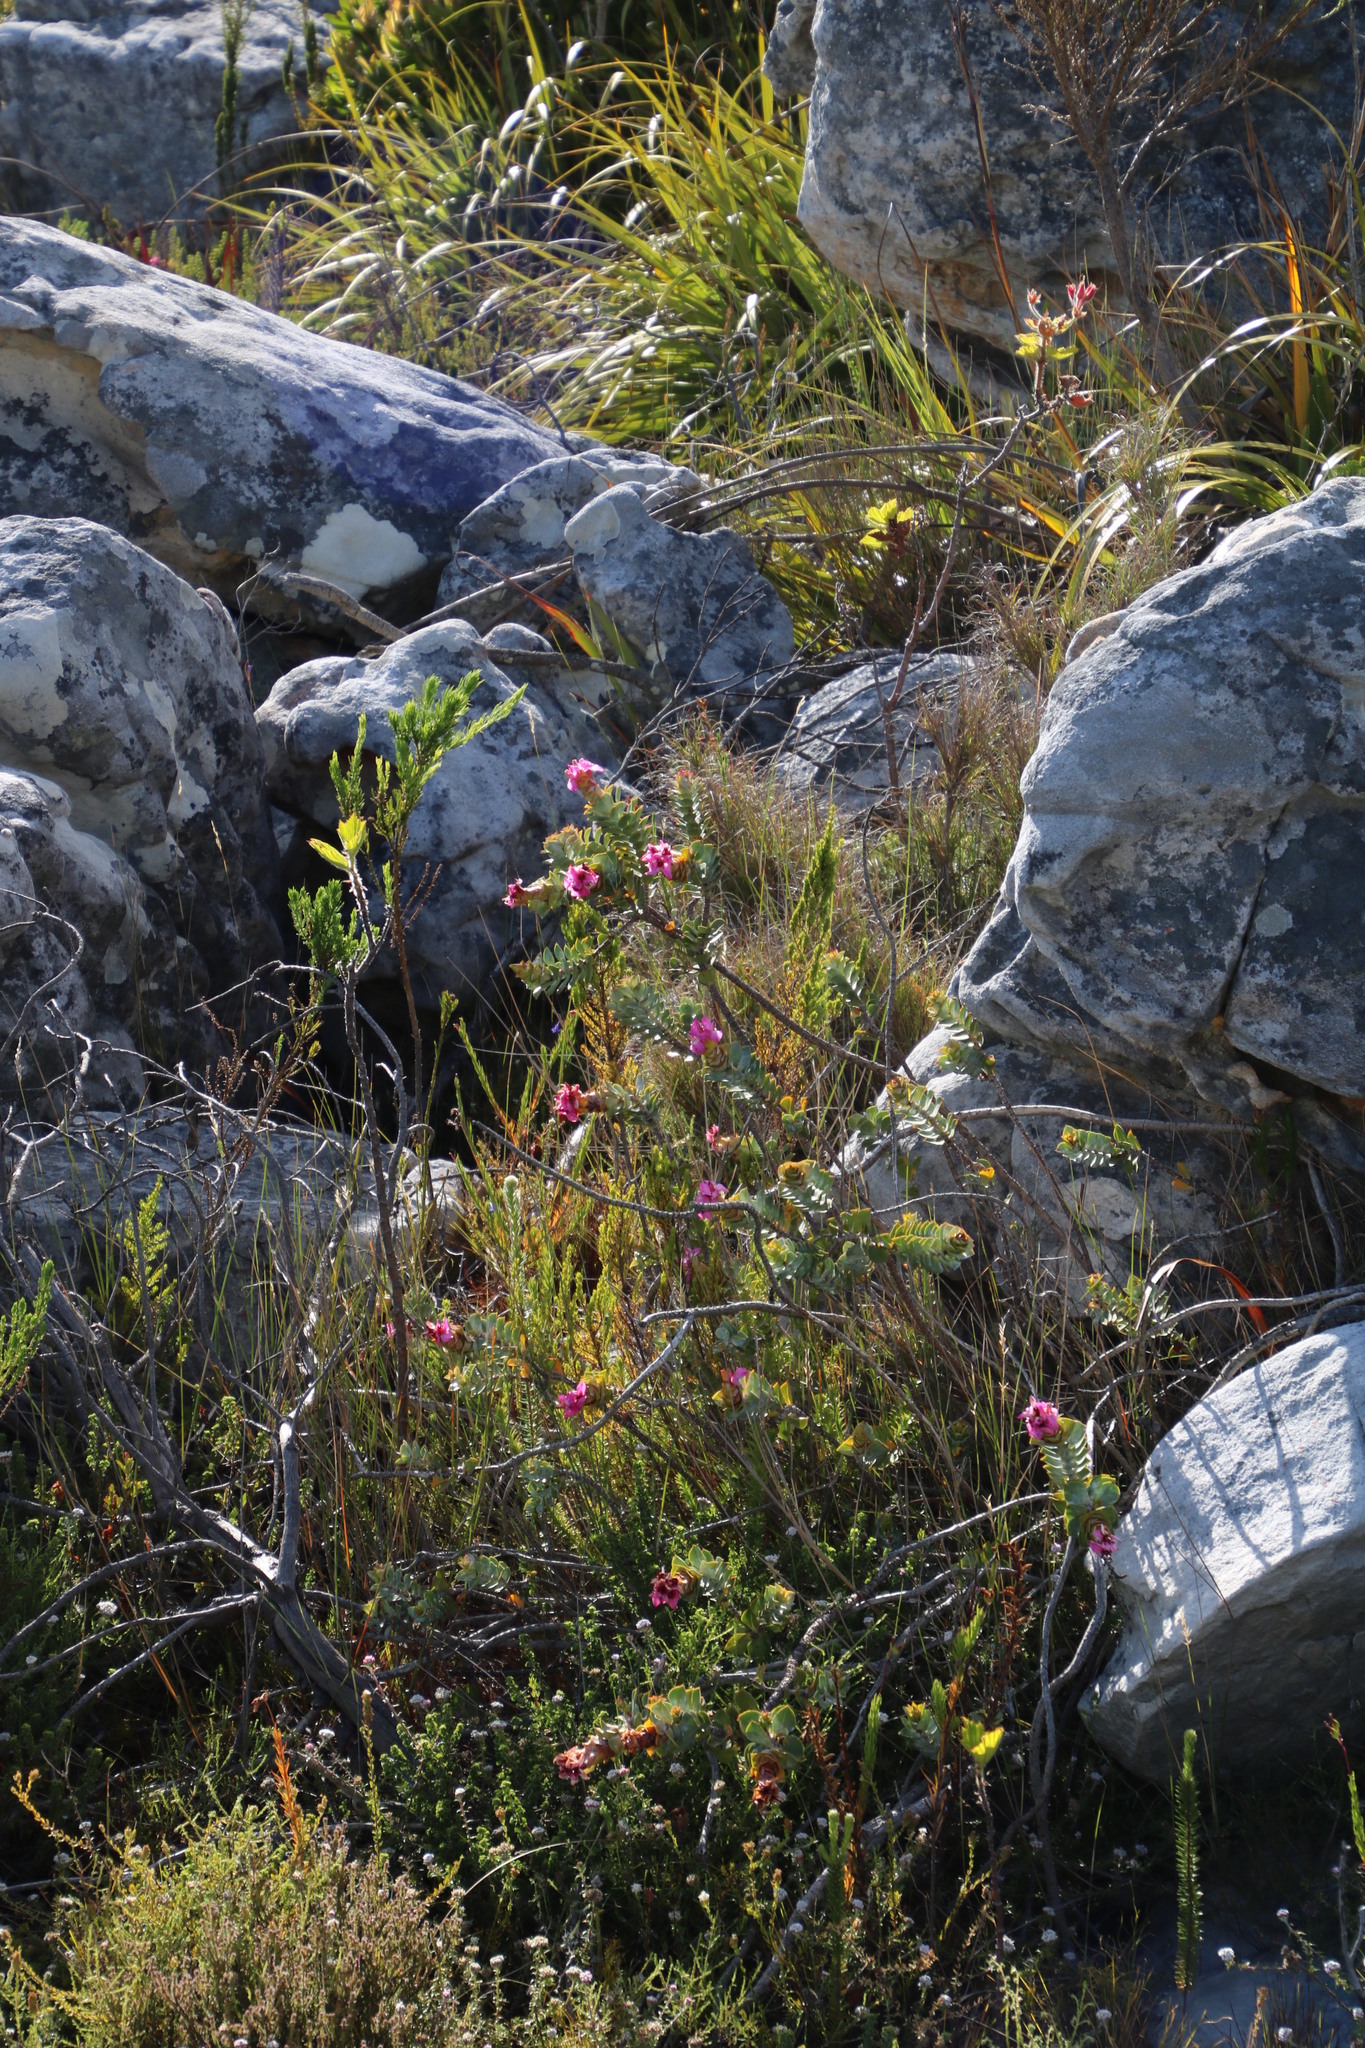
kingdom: Plantae
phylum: Tracheophyta
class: Magnoliopsida
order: Myrtales
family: Penaeaceae
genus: Saltera
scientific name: Saltera sarcocolla
